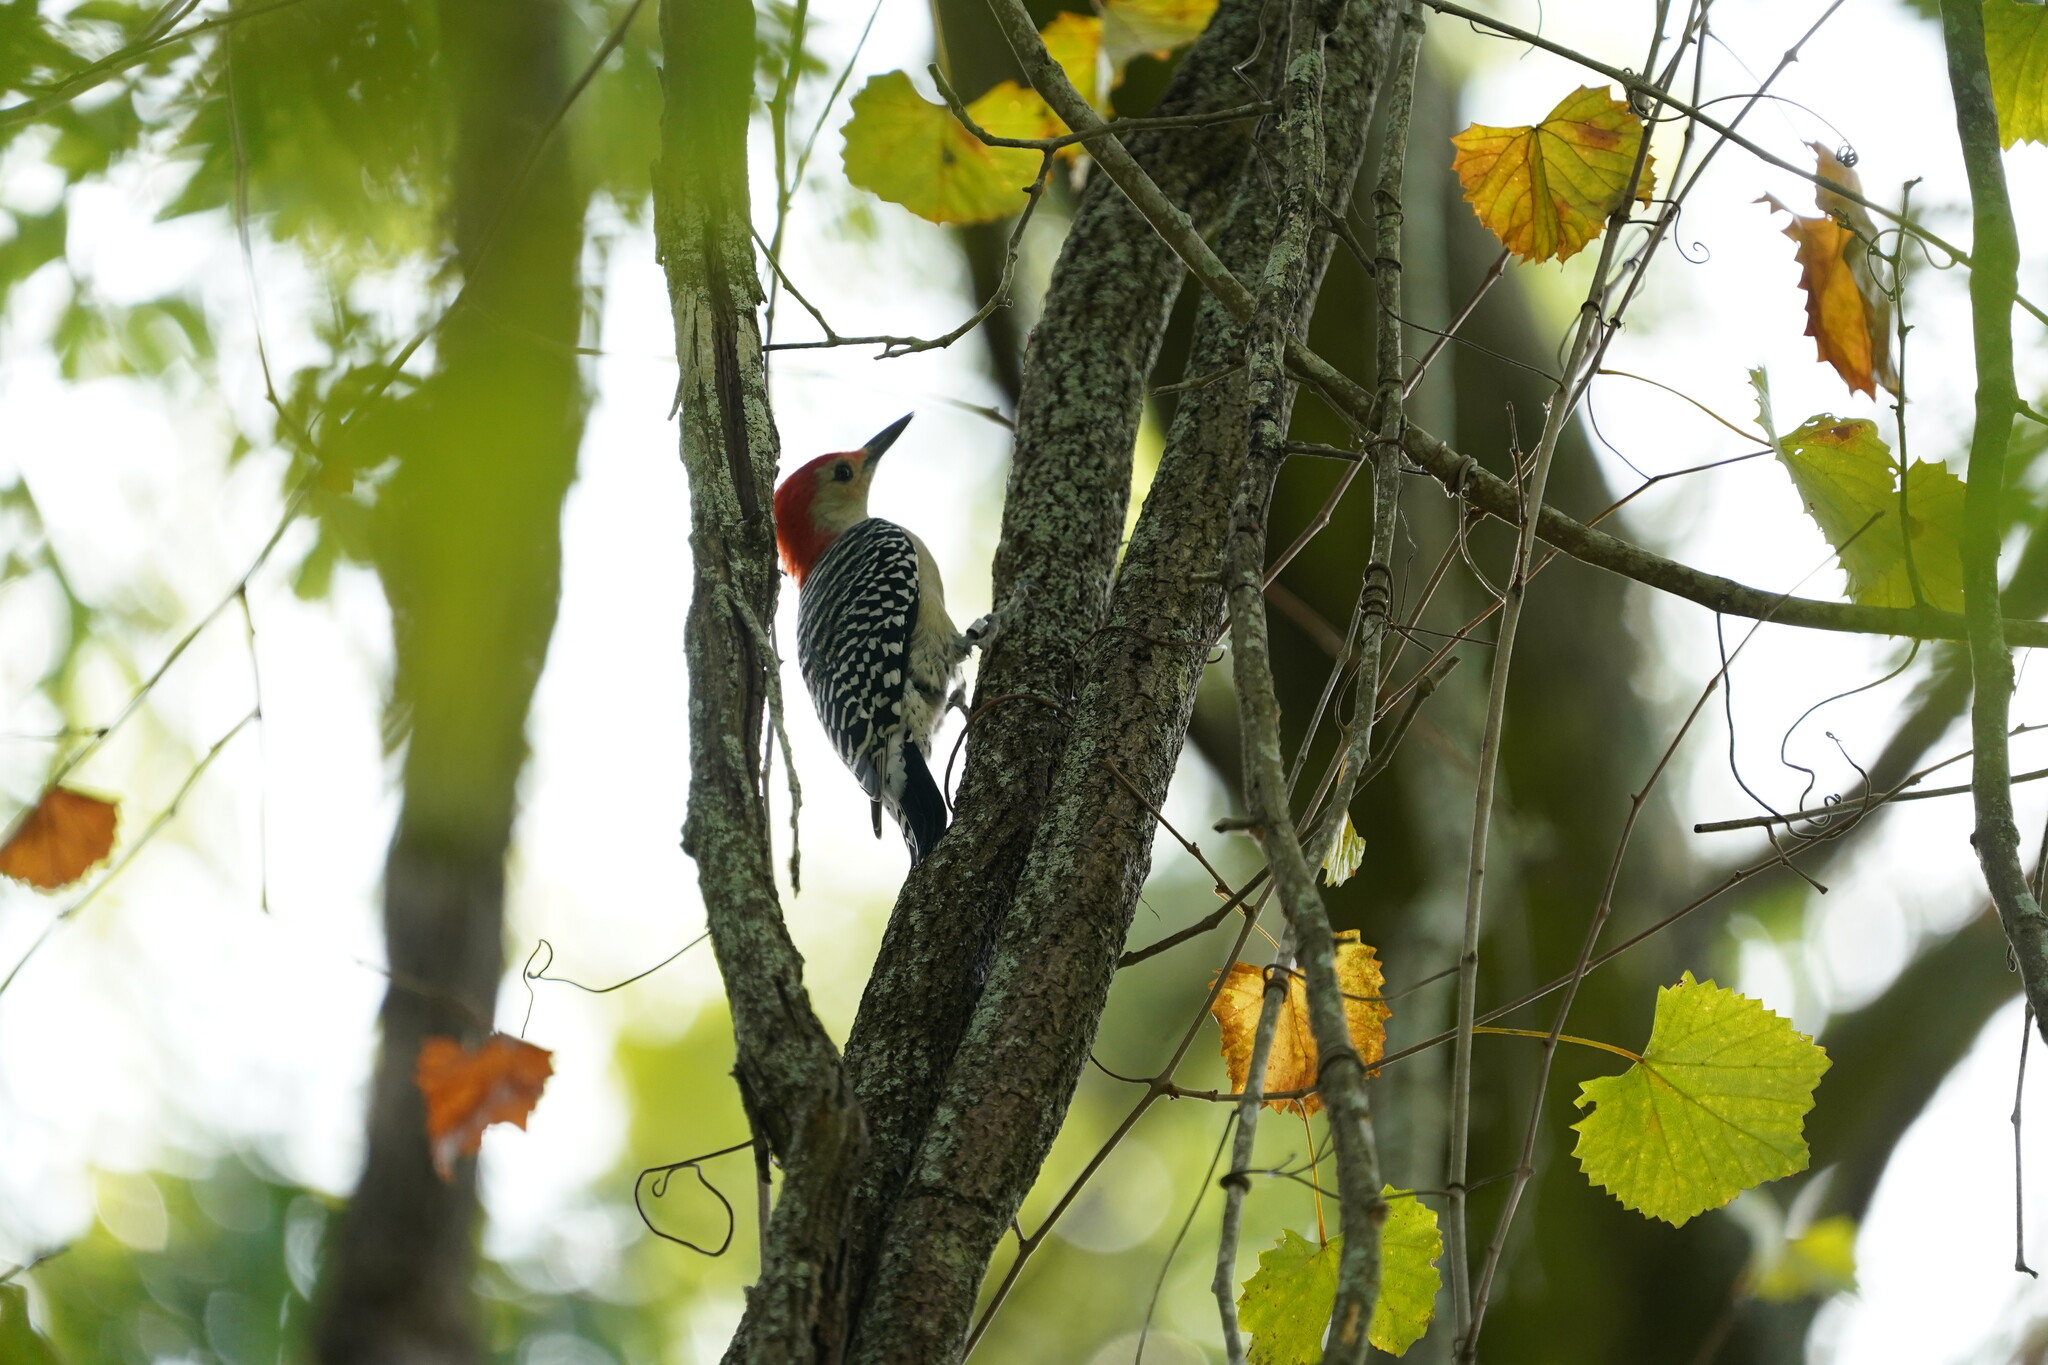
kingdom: Animalia
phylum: Chordata
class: Aves
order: Piciformes
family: Picidae
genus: Melanerpes
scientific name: Melanerpes carolinus
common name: Red-bellied woodpecker
